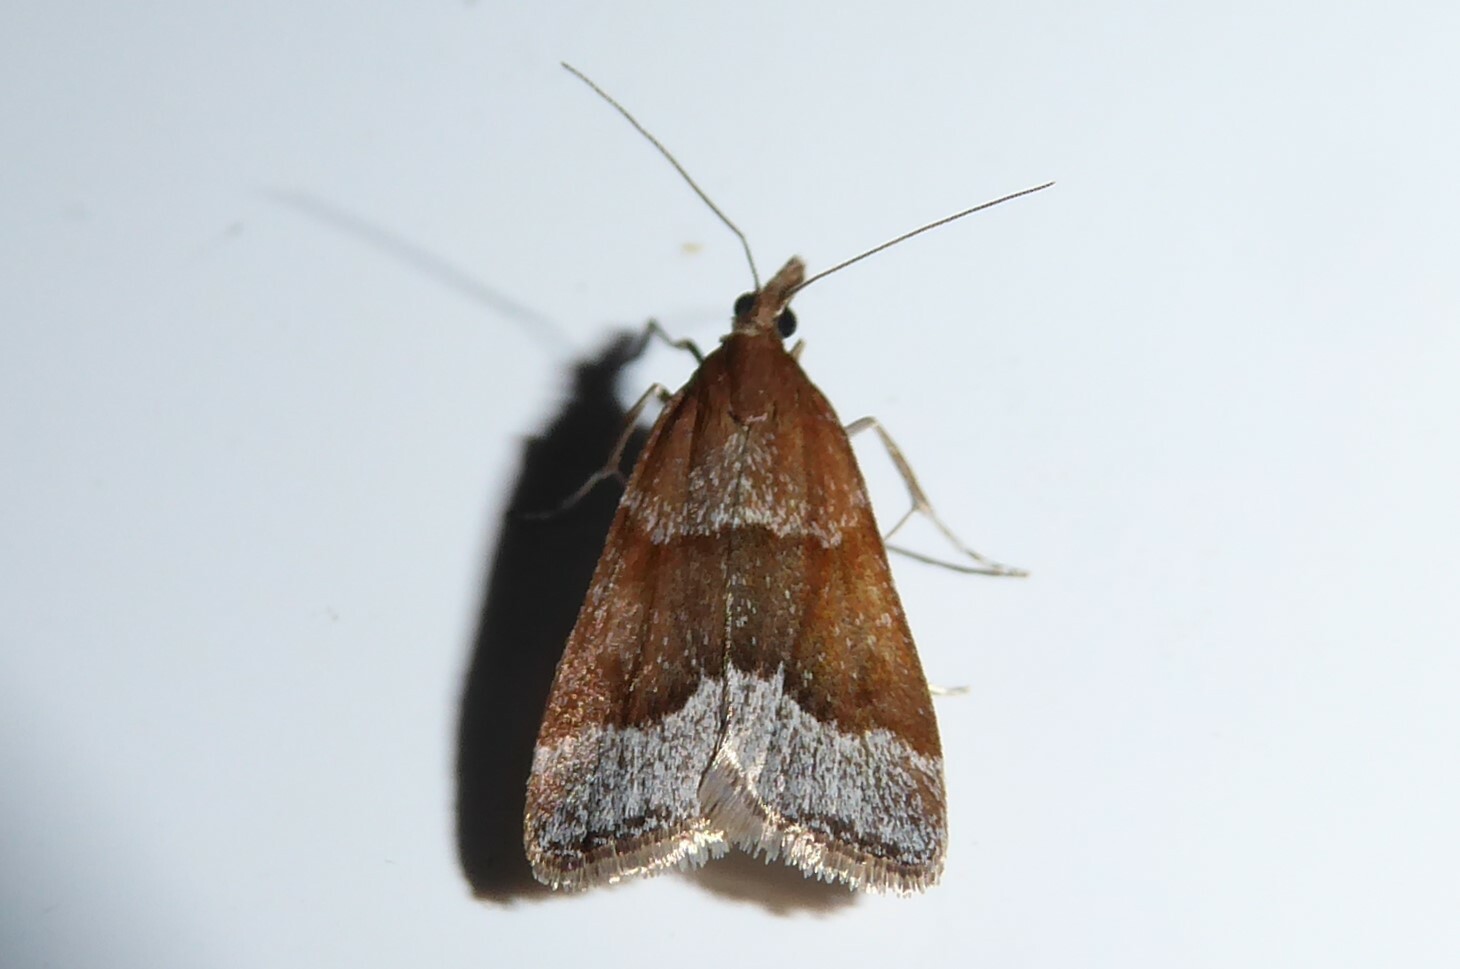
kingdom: Animalia
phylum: Arthropoda
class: Insecta
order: Lepidoptera
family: Crambidae
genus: Eudonia
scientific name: Eudonia feredayi
